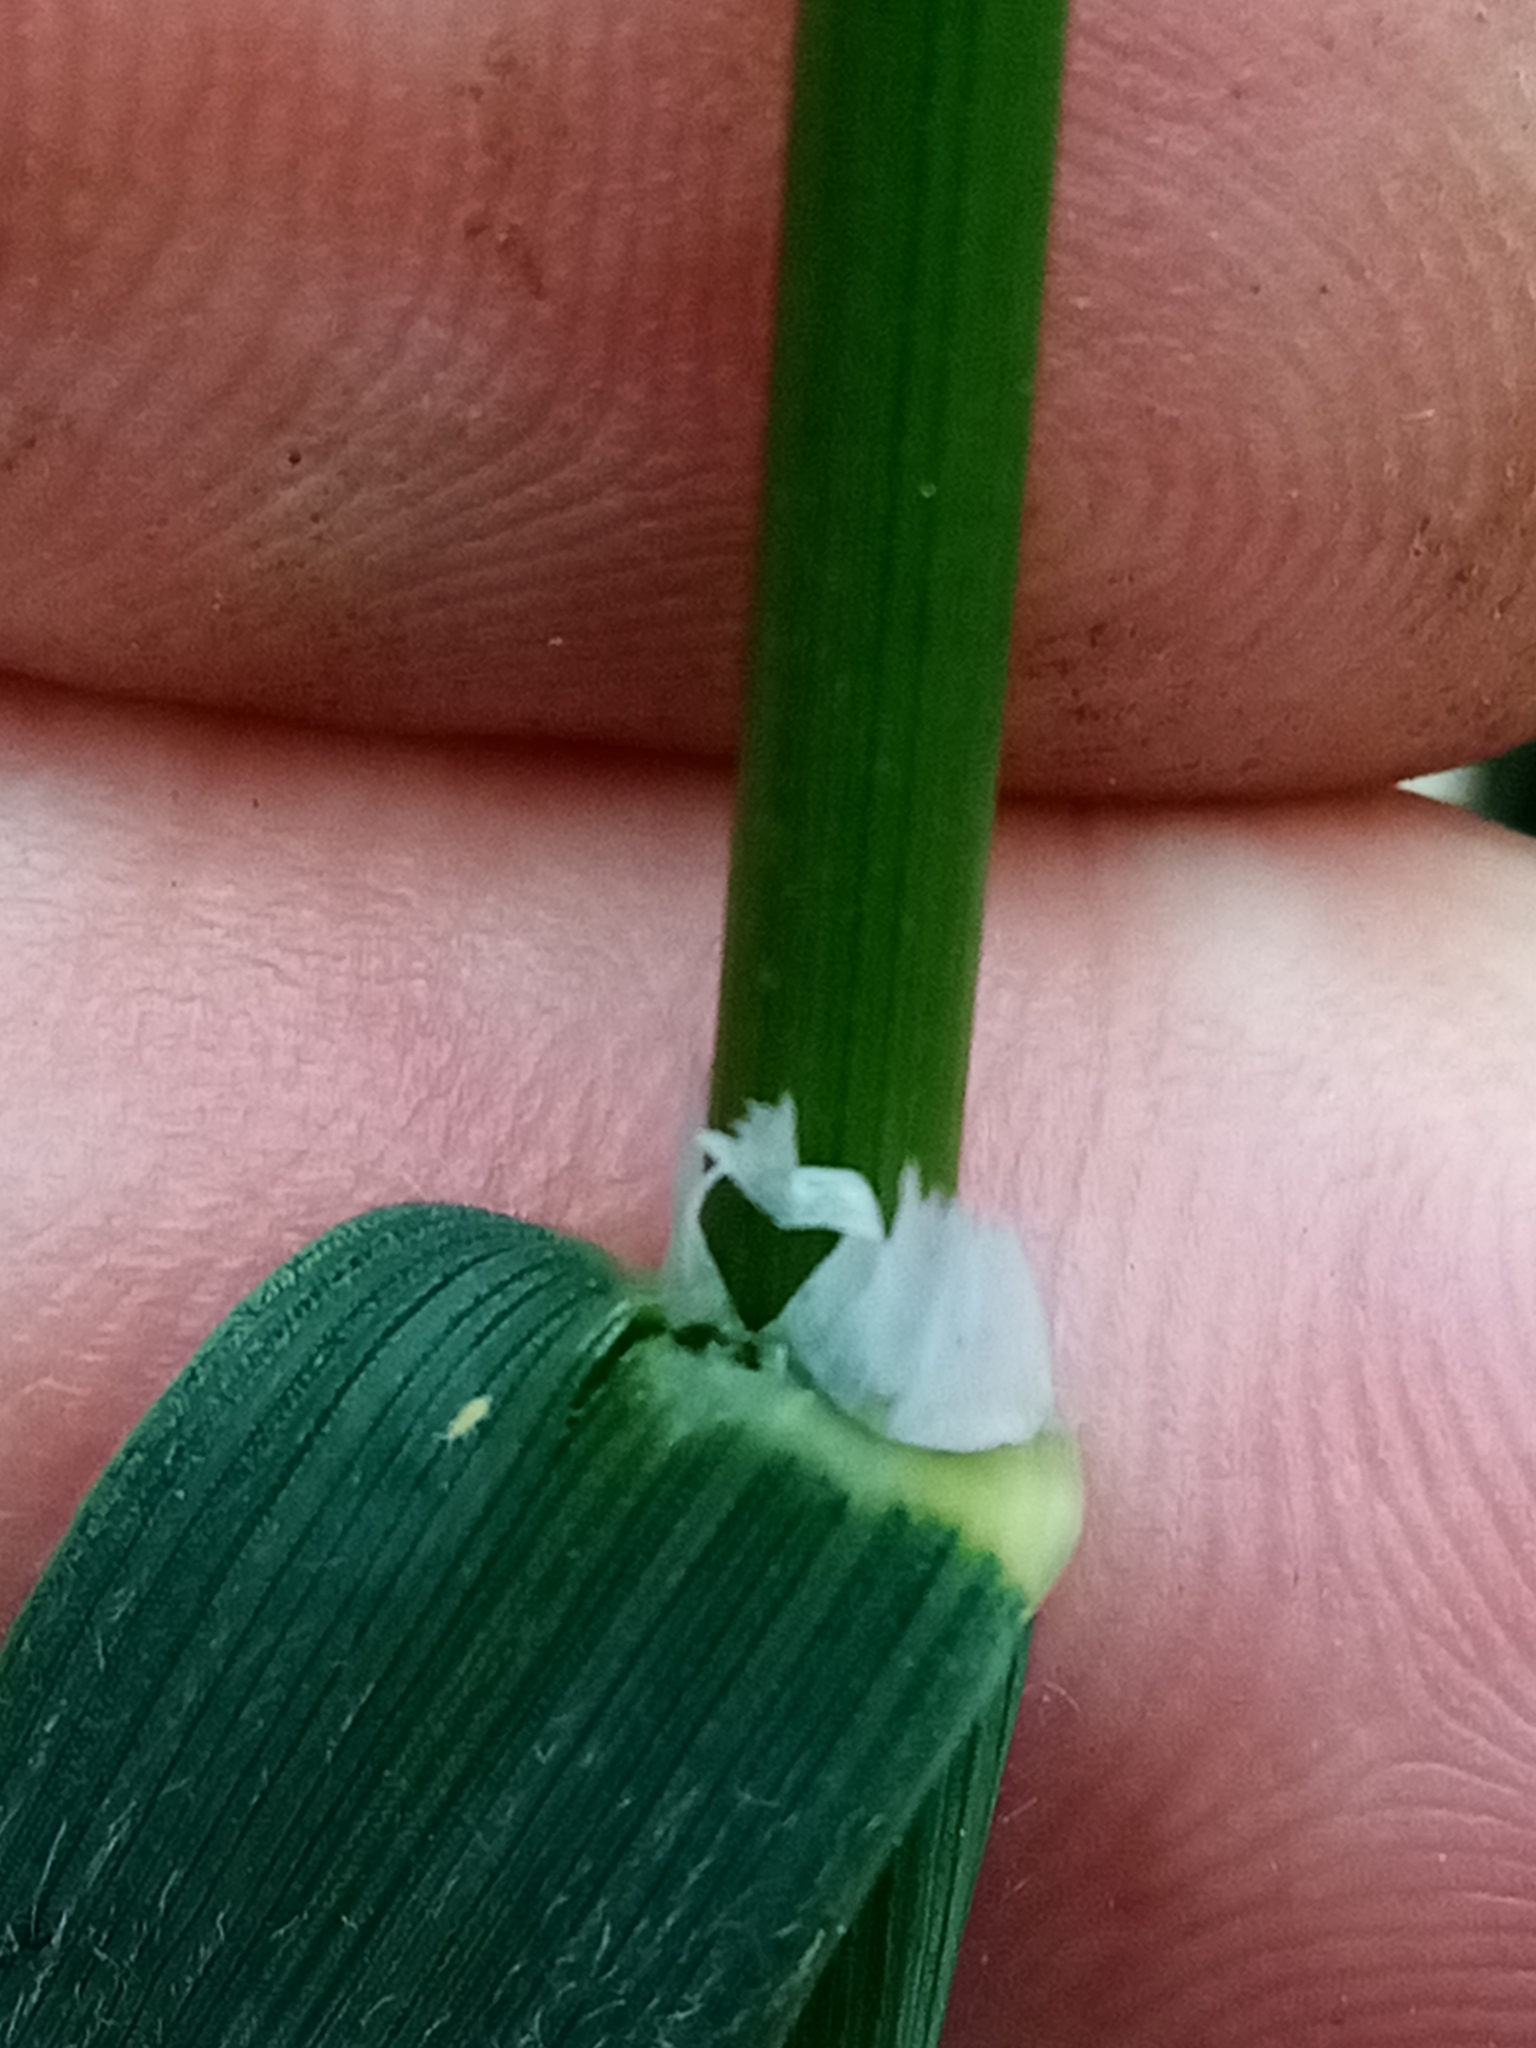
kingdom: Plantae
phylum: Tracheophyta
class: Liliopsida
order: Poales
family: Poaceae
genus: Bromus
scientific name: Bromus lithobius
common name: Chilean brome
